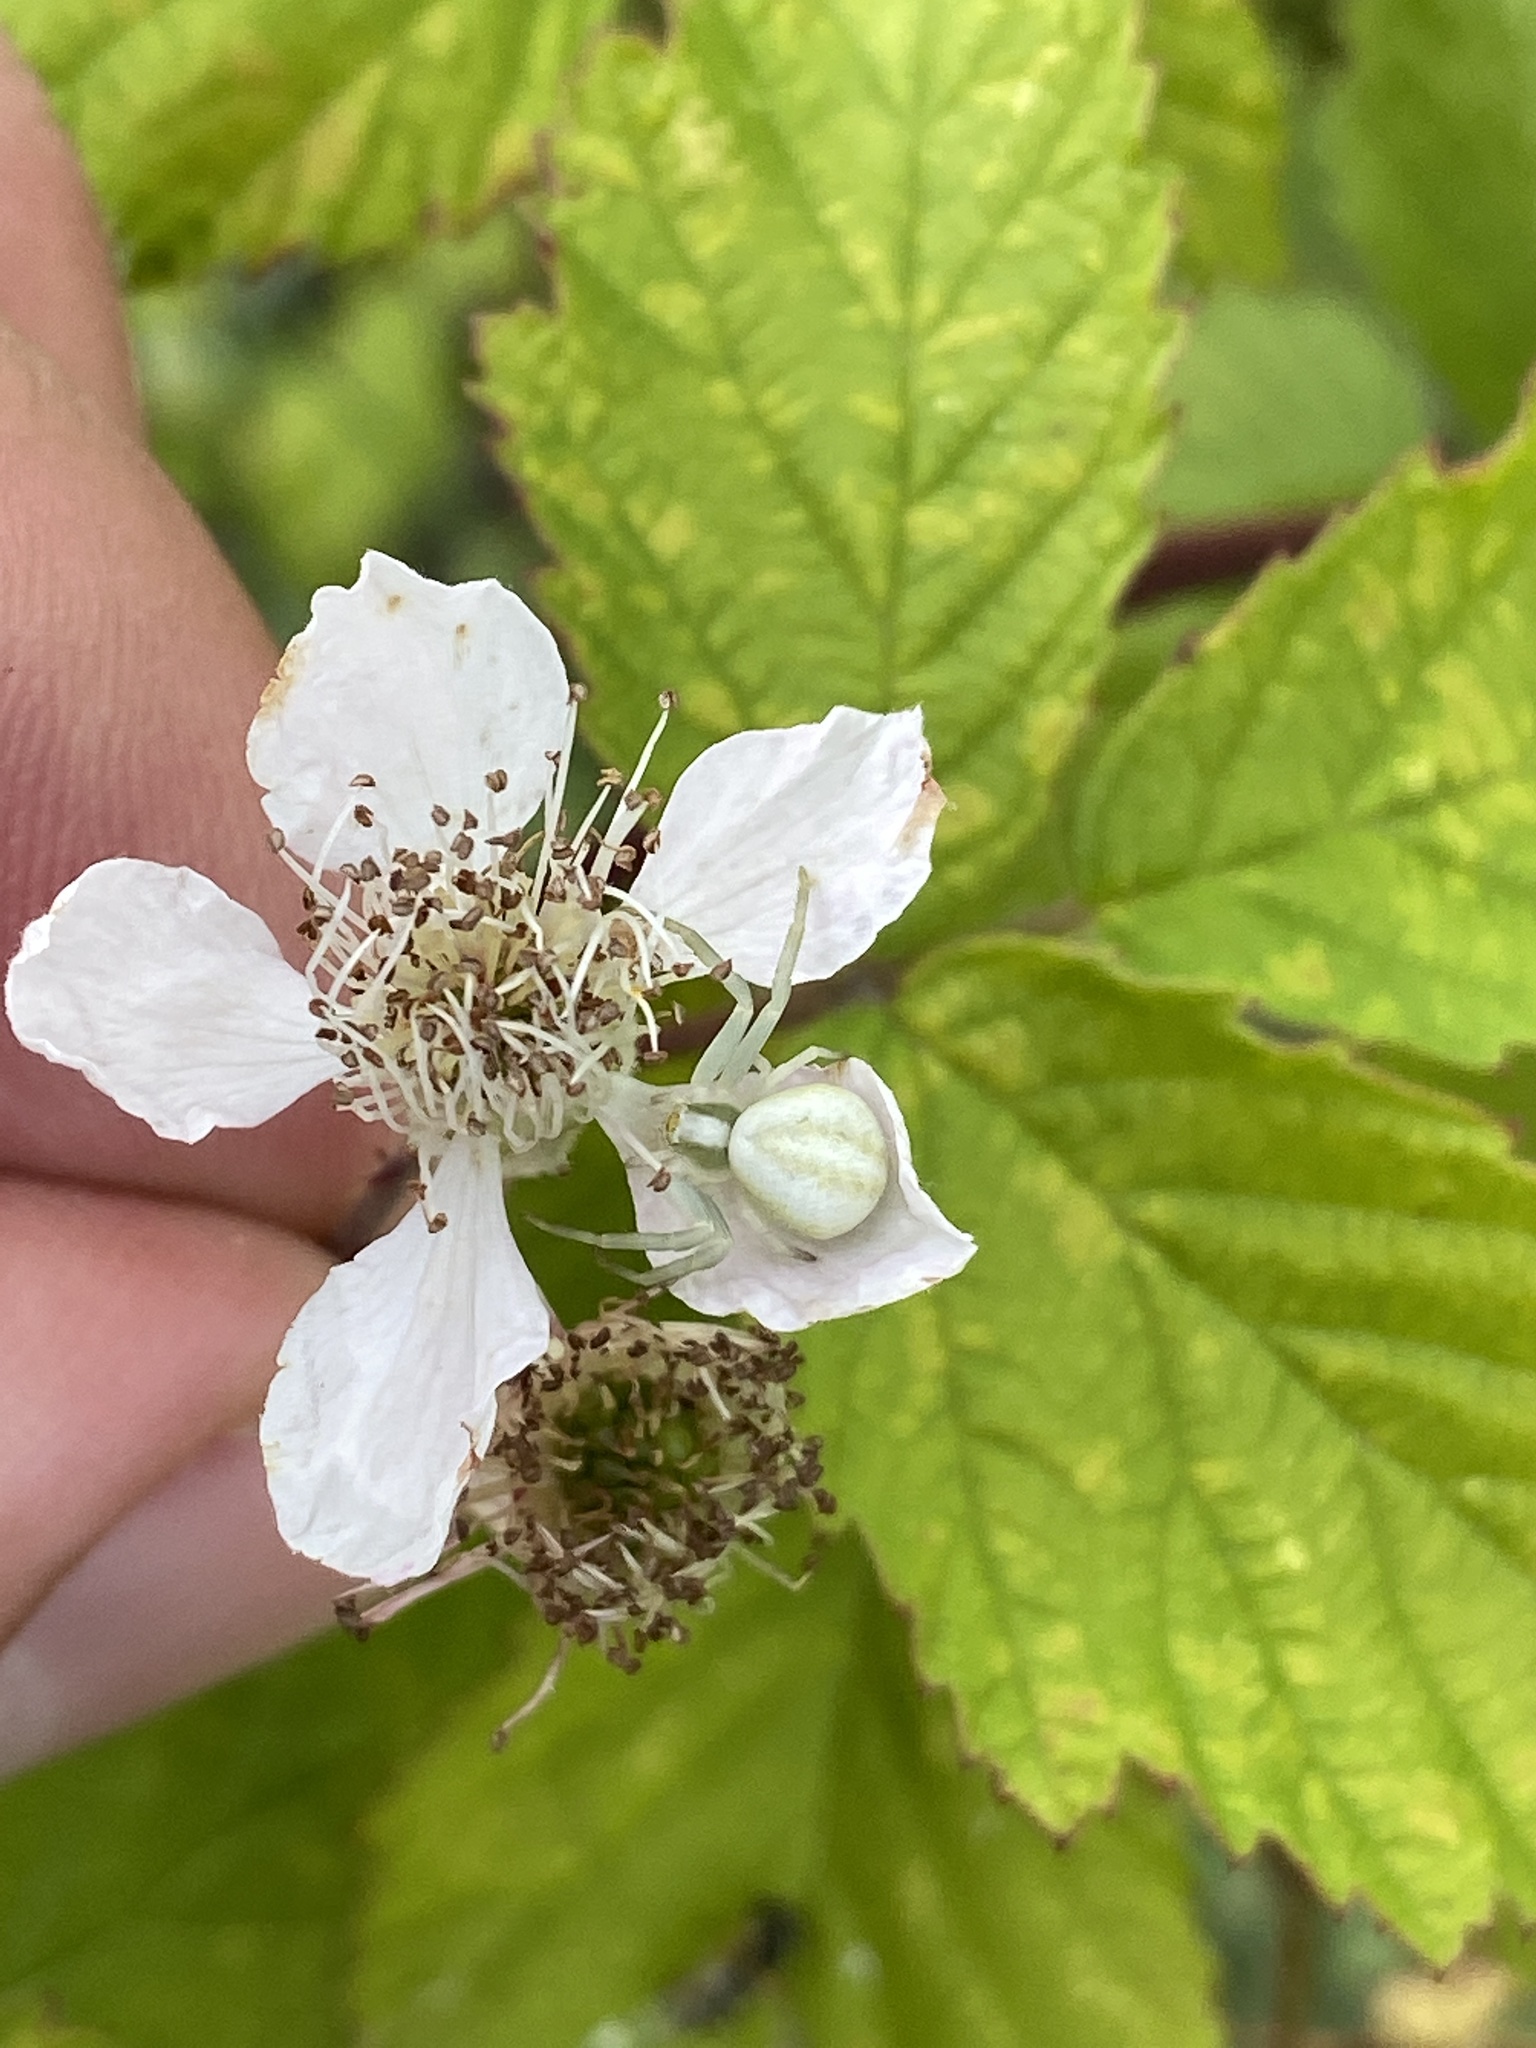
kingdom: Animalia
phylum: Arthropoda
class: Arachnida
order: Araneae
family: Thomisidae
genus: Misumena
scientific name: Misumena vatia
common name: Goldenrod crab spider
